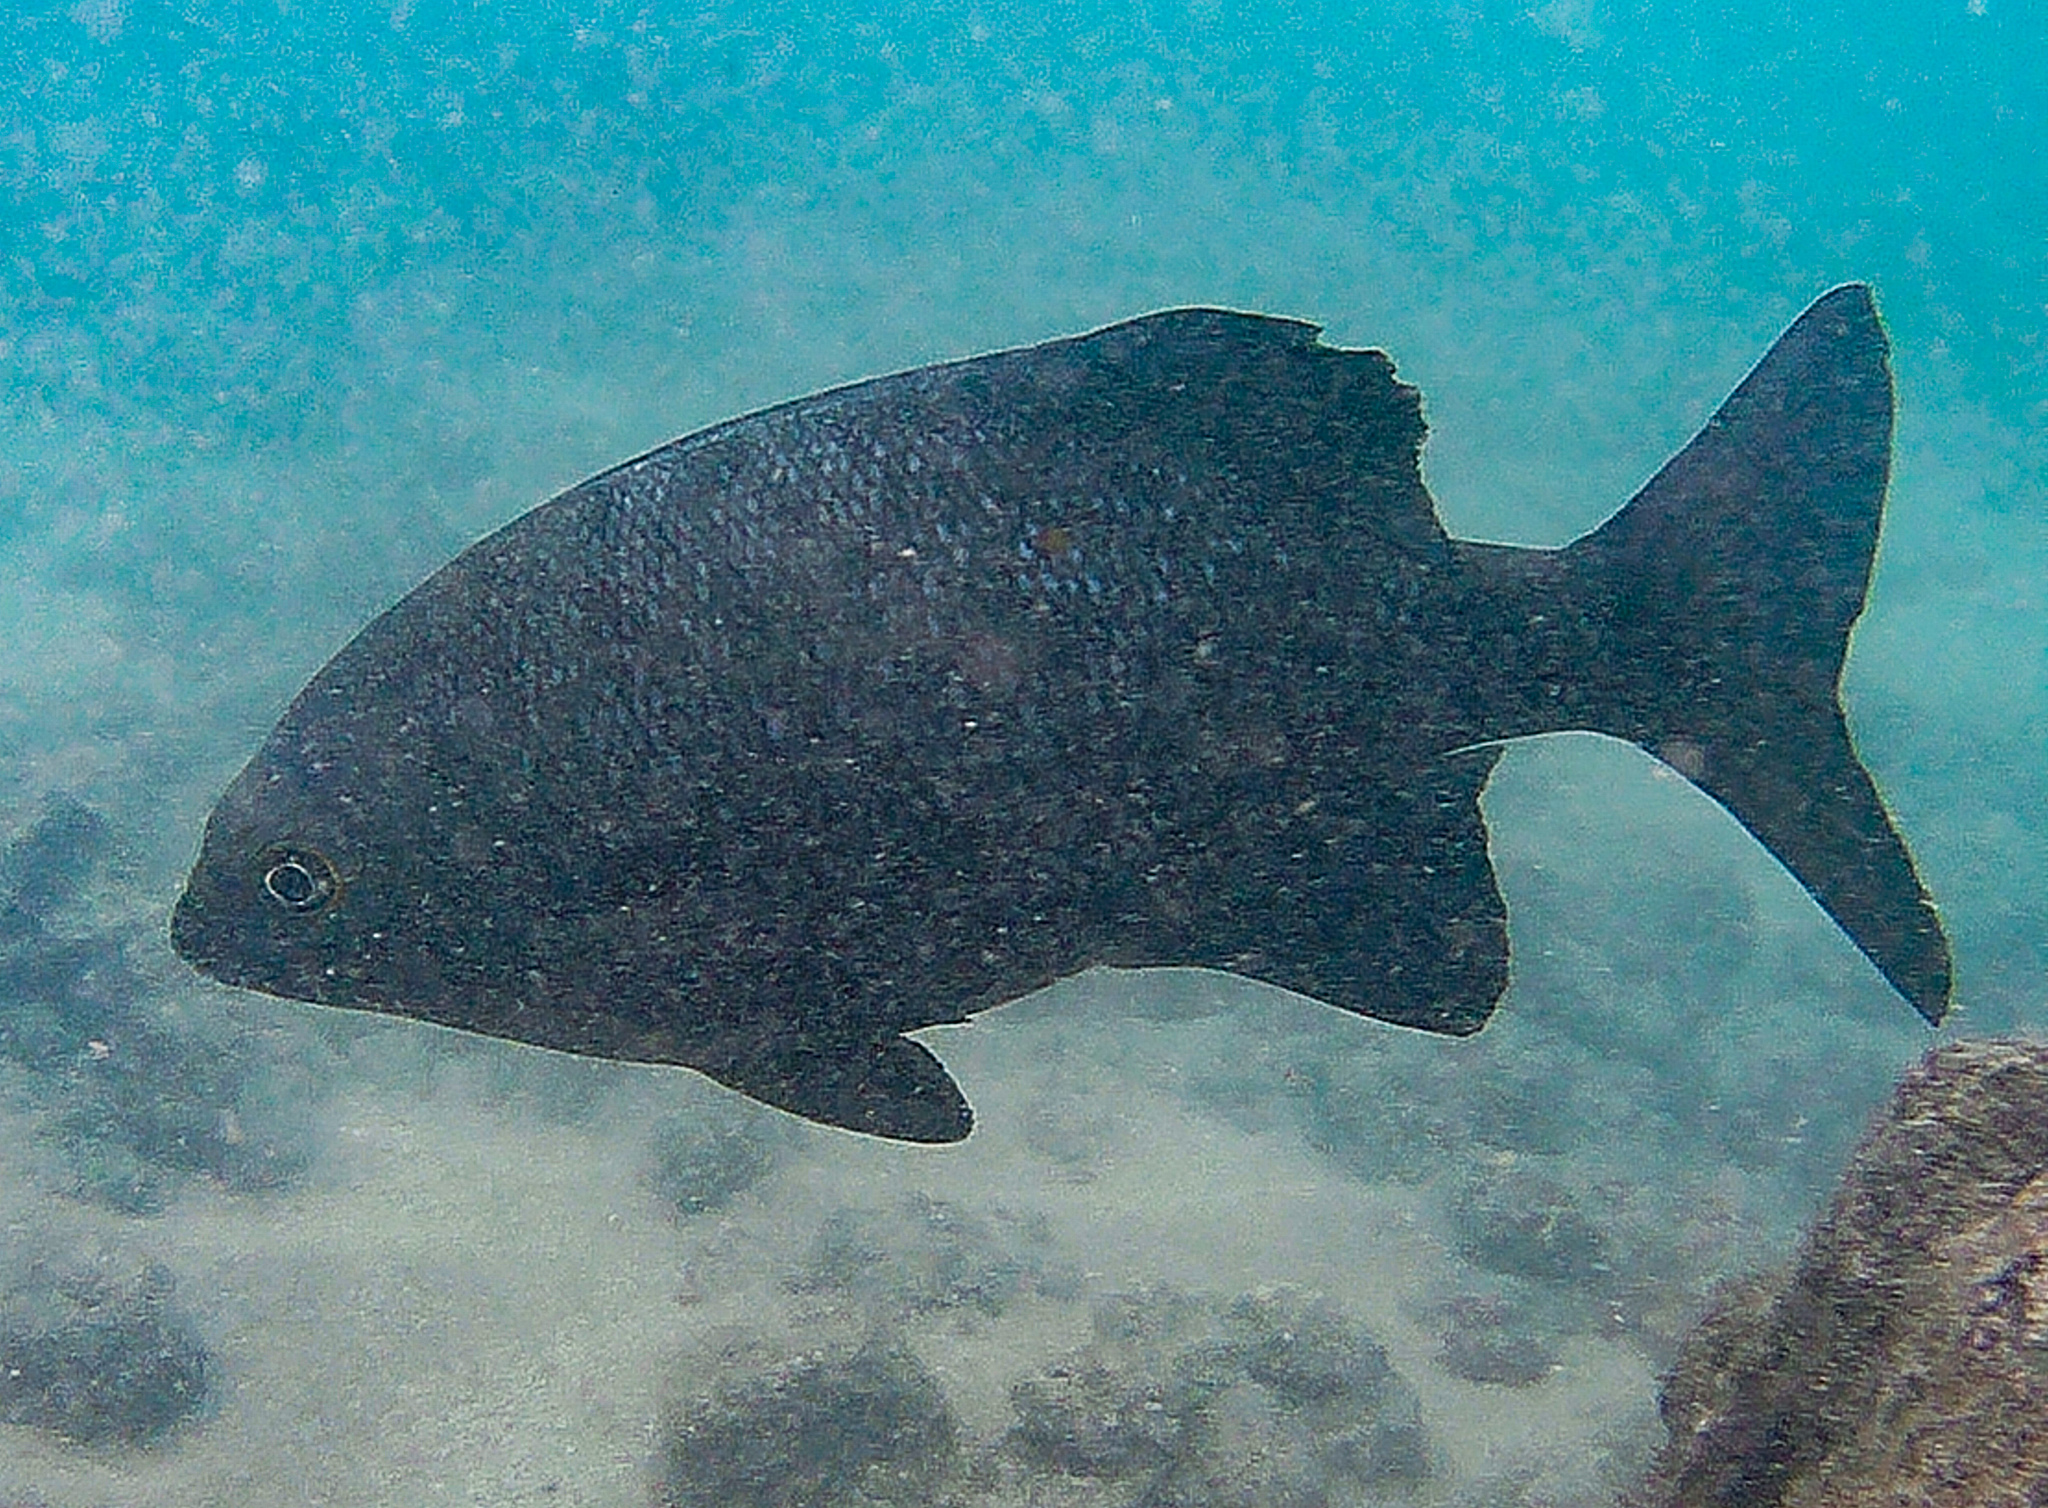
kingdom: Animalia
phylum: Chordata
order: Perciformes
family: Kyphosidae
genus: Kyphosus
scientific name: Kyphosus cinerascens
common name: Topsail drummer
